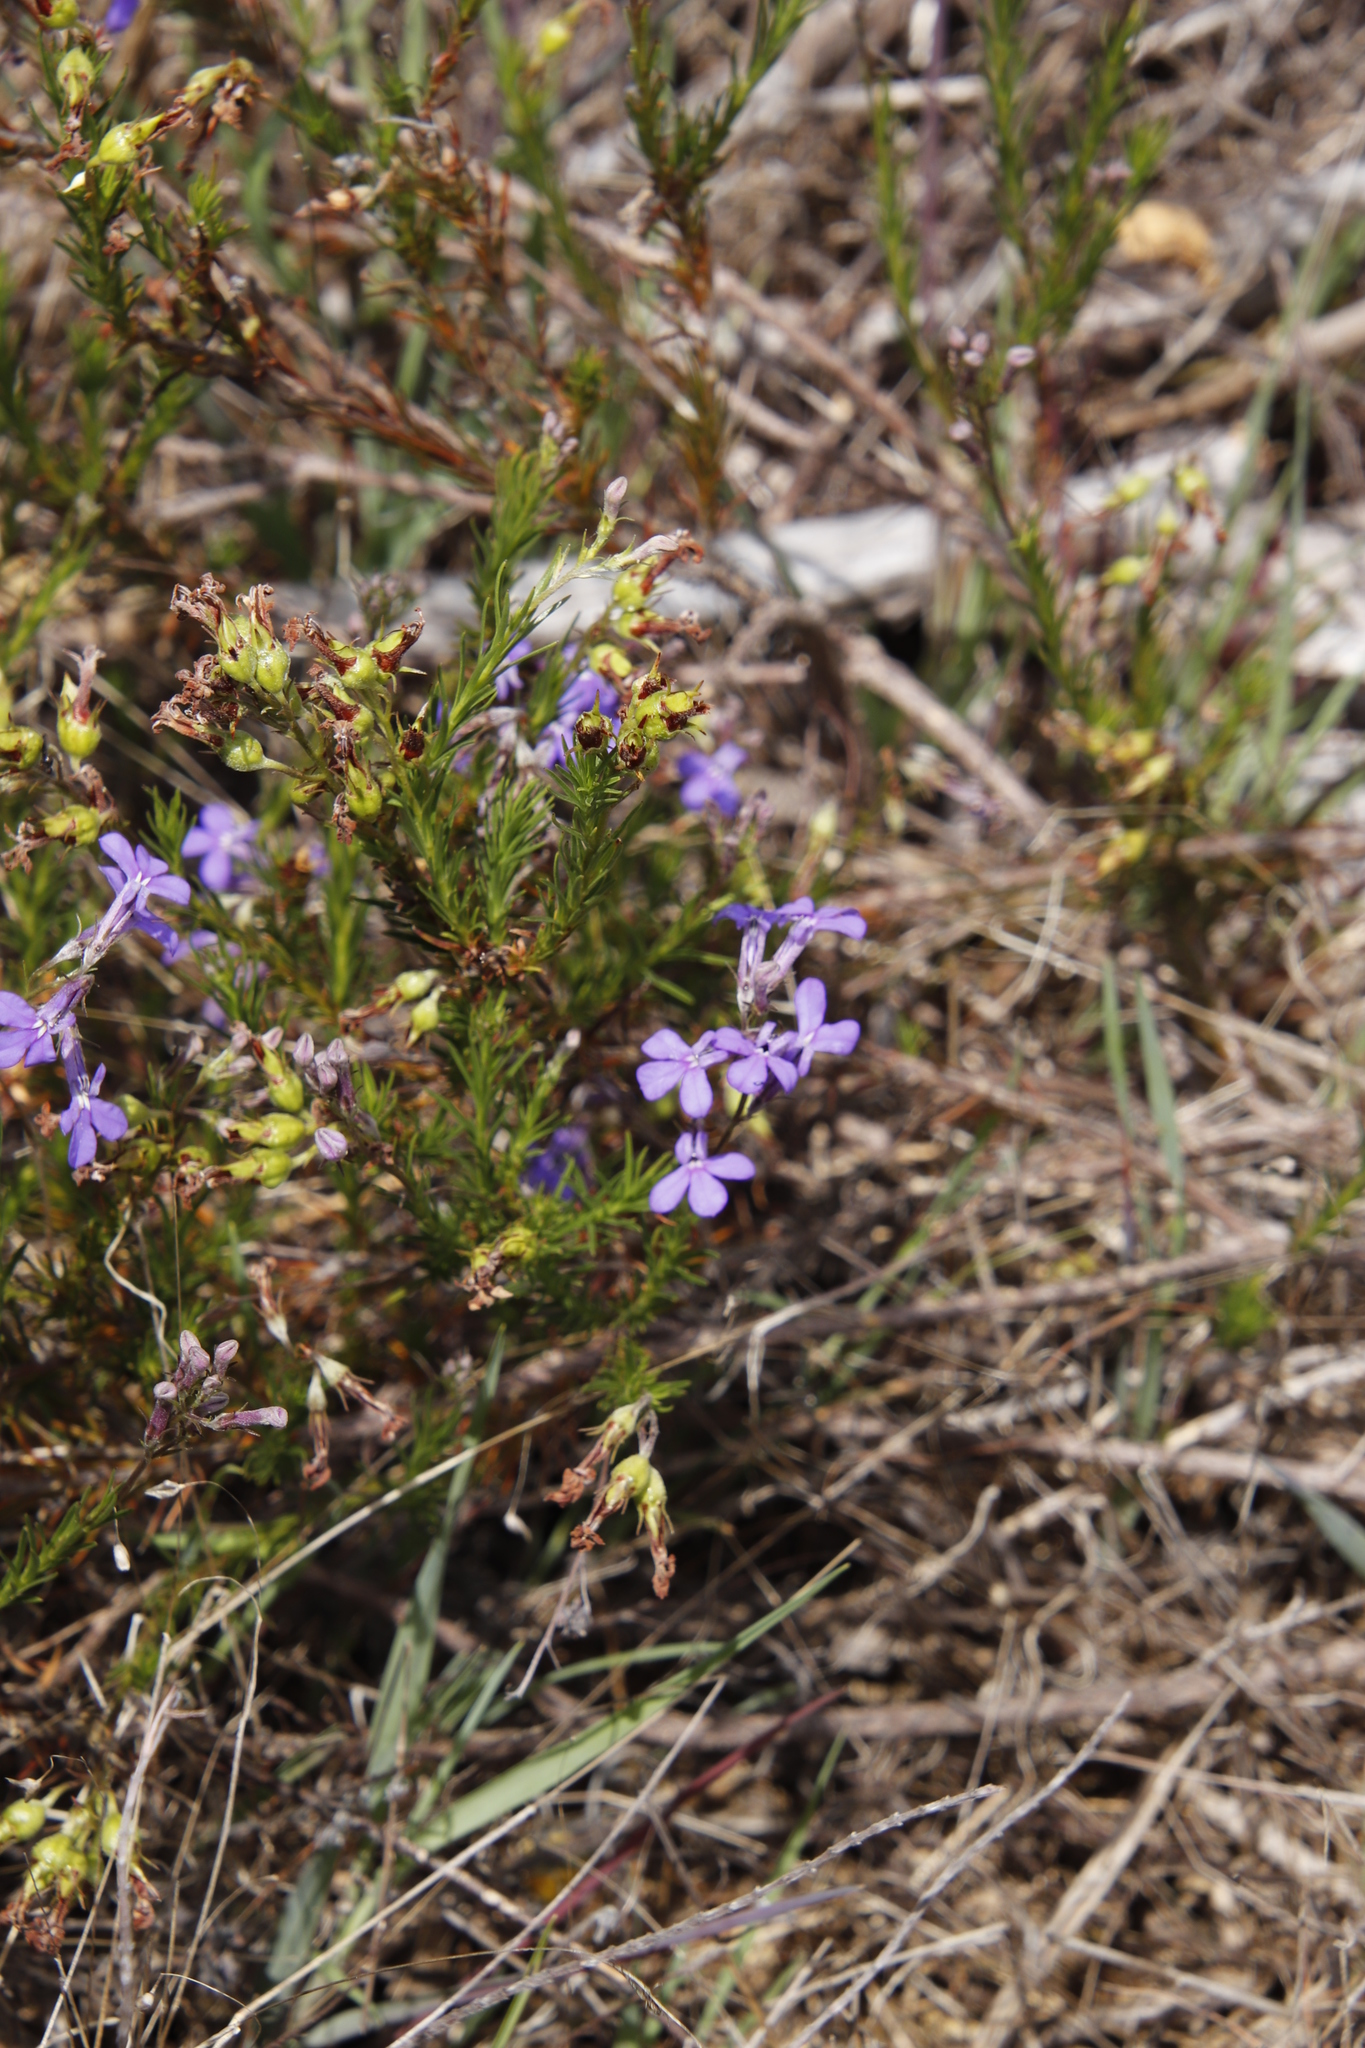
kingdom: Plantae
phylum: Tracheophyta
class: Magnoliopsida
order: Asterales
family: Campanulaceae
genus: Lobelia
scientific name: Lobelia pinifolia
